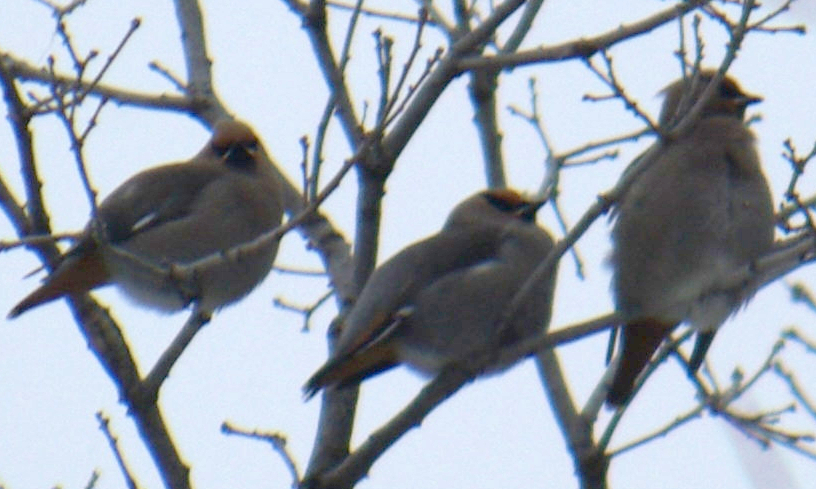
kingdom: Animalia
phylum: Chordata
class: Aves
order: Passeriformes
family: Bombycillidae
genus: Bombycilla
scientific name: Bombycilla garrulus
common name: Bohemian waxwing
